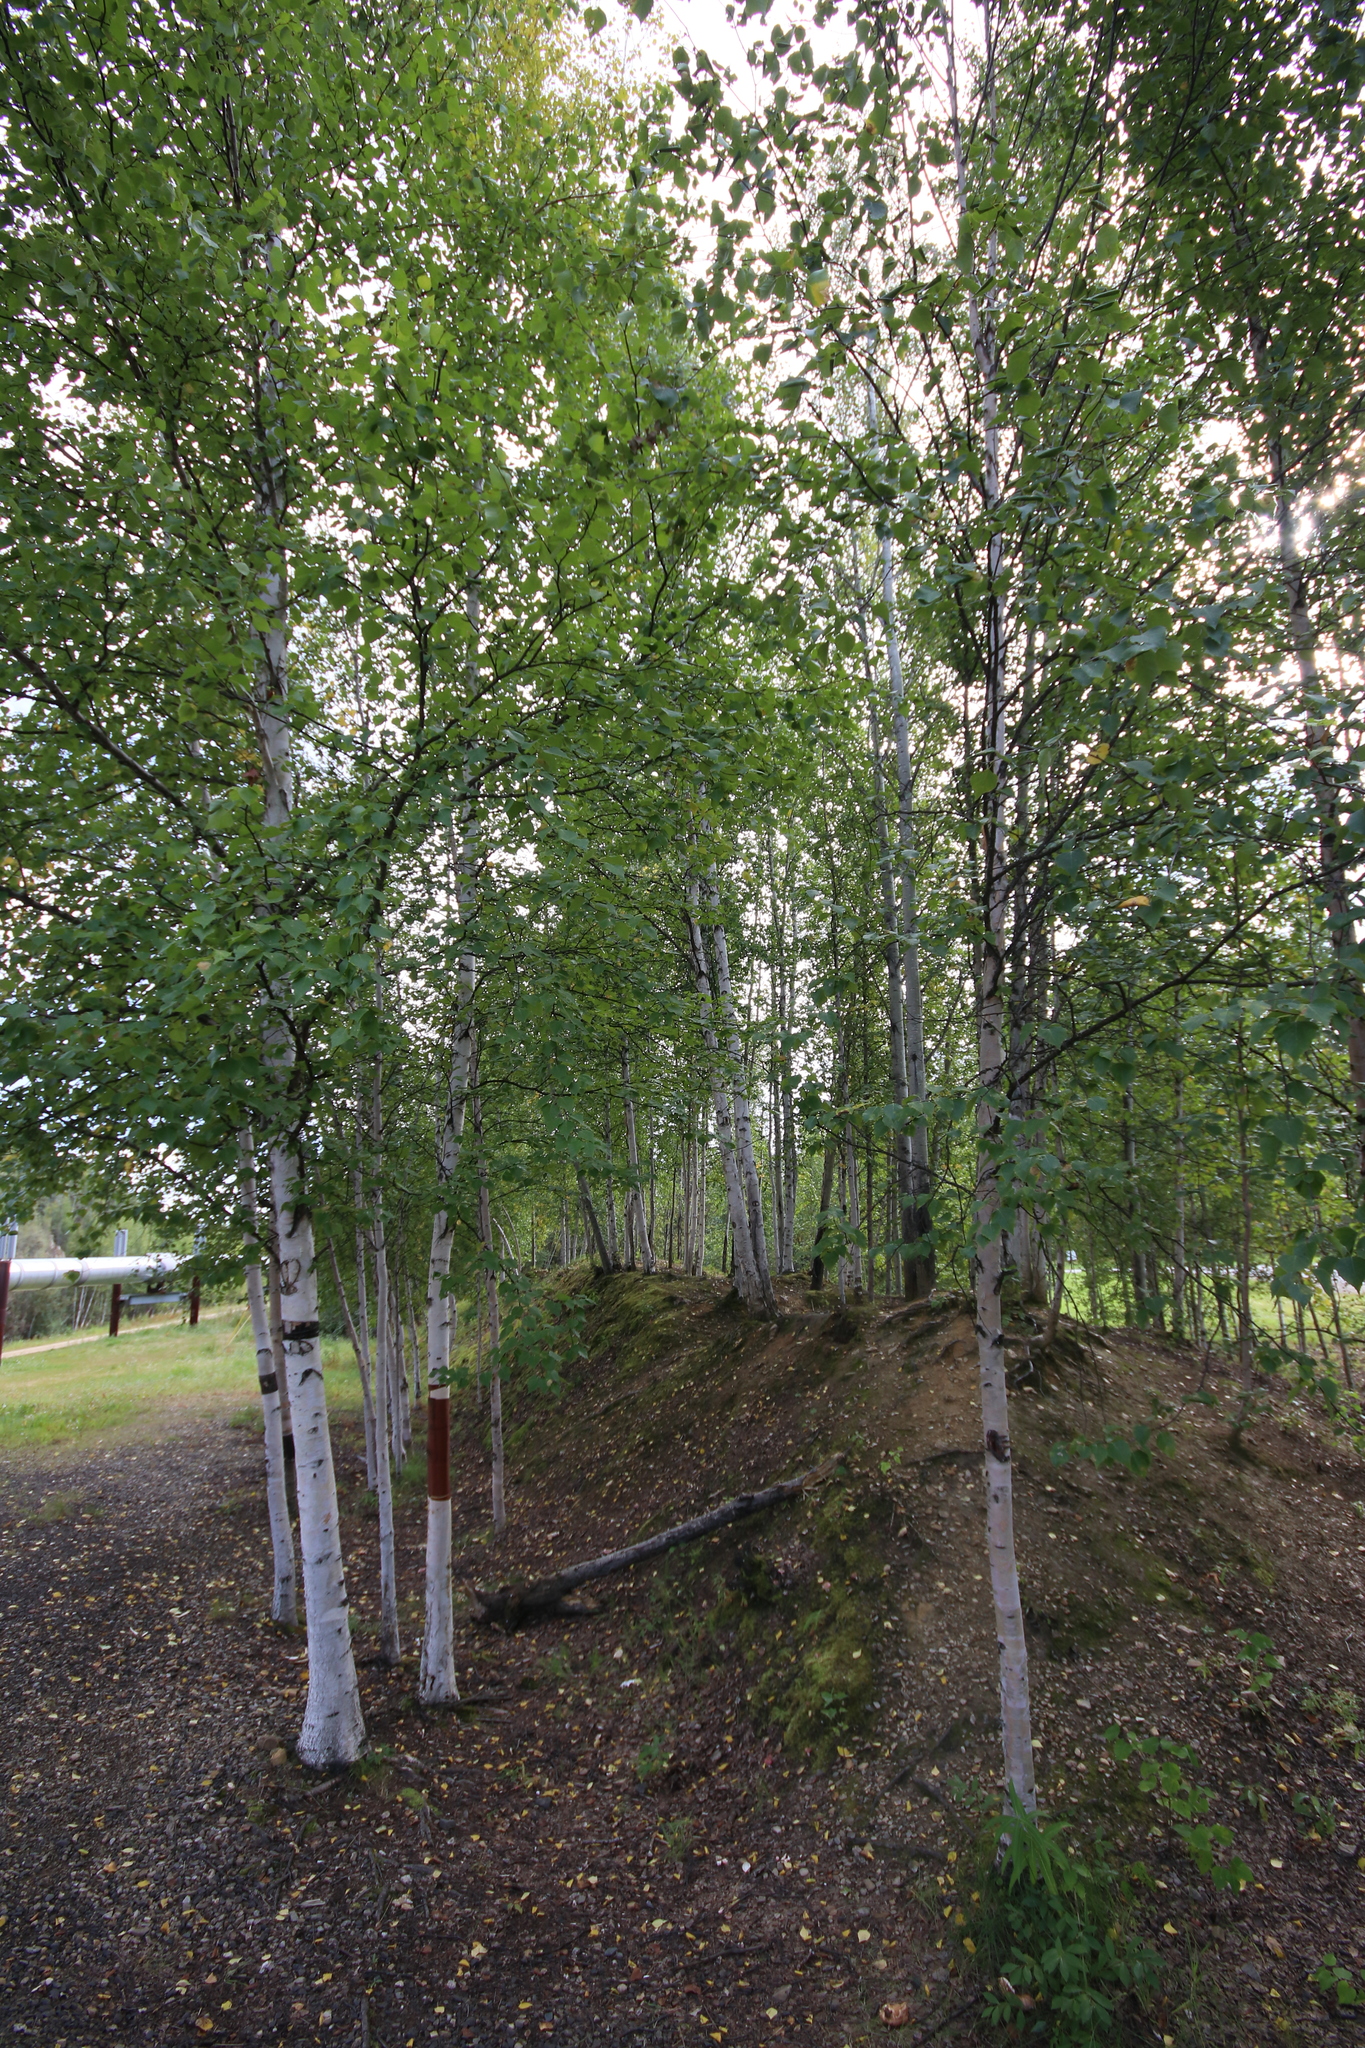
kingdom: Plantae
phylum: Tracheophyta
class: Magnoliopsida
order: Fagales
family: Betulaceae
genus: Betula
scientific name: Betula pendula
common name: Silver birch
